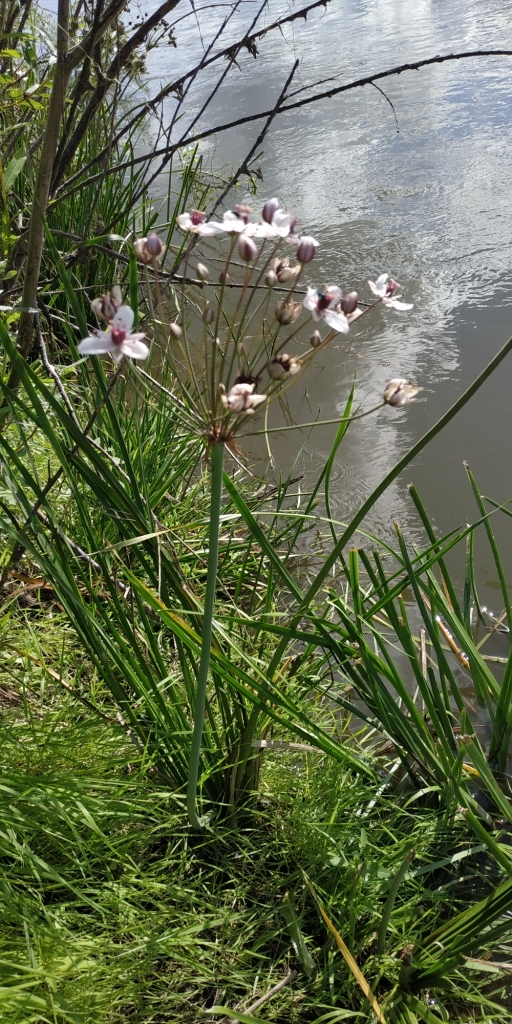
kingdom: Plantae
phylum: Tracheophyta
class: Liliopsida
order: Alismatales
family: Butomaceae
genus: Butomus
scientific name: Butomus umbellatus
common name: Flowering-rush
